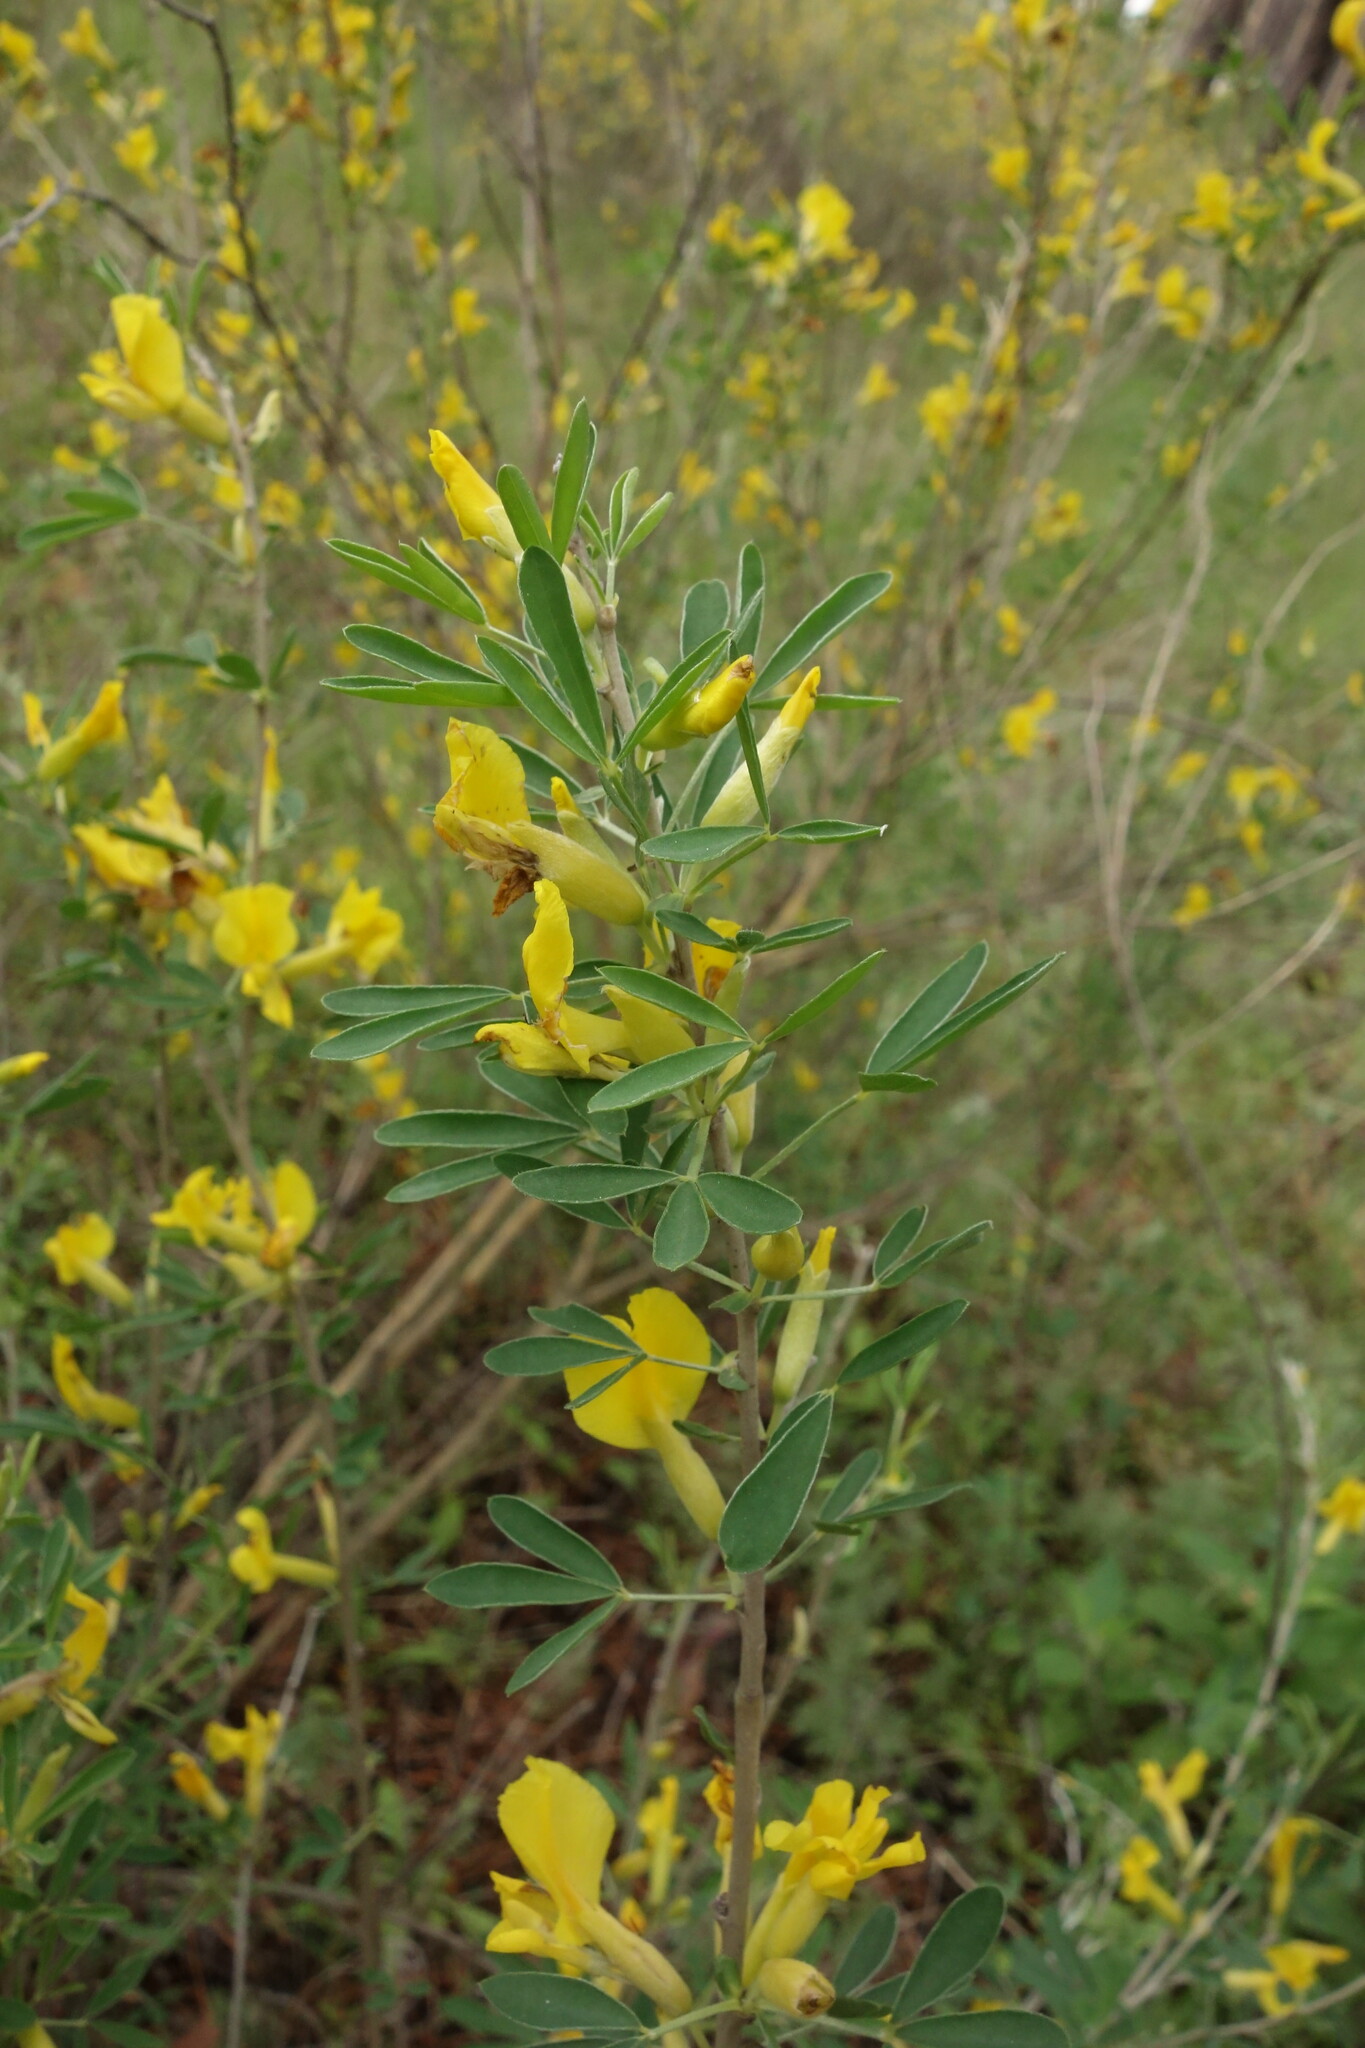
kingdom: Plantae
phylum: Tracheophyta
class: Magnoliopsida
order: Fabales
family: Fabaceae
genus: Chamaecytisus
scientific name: Chamaecytisus ruthenicus
